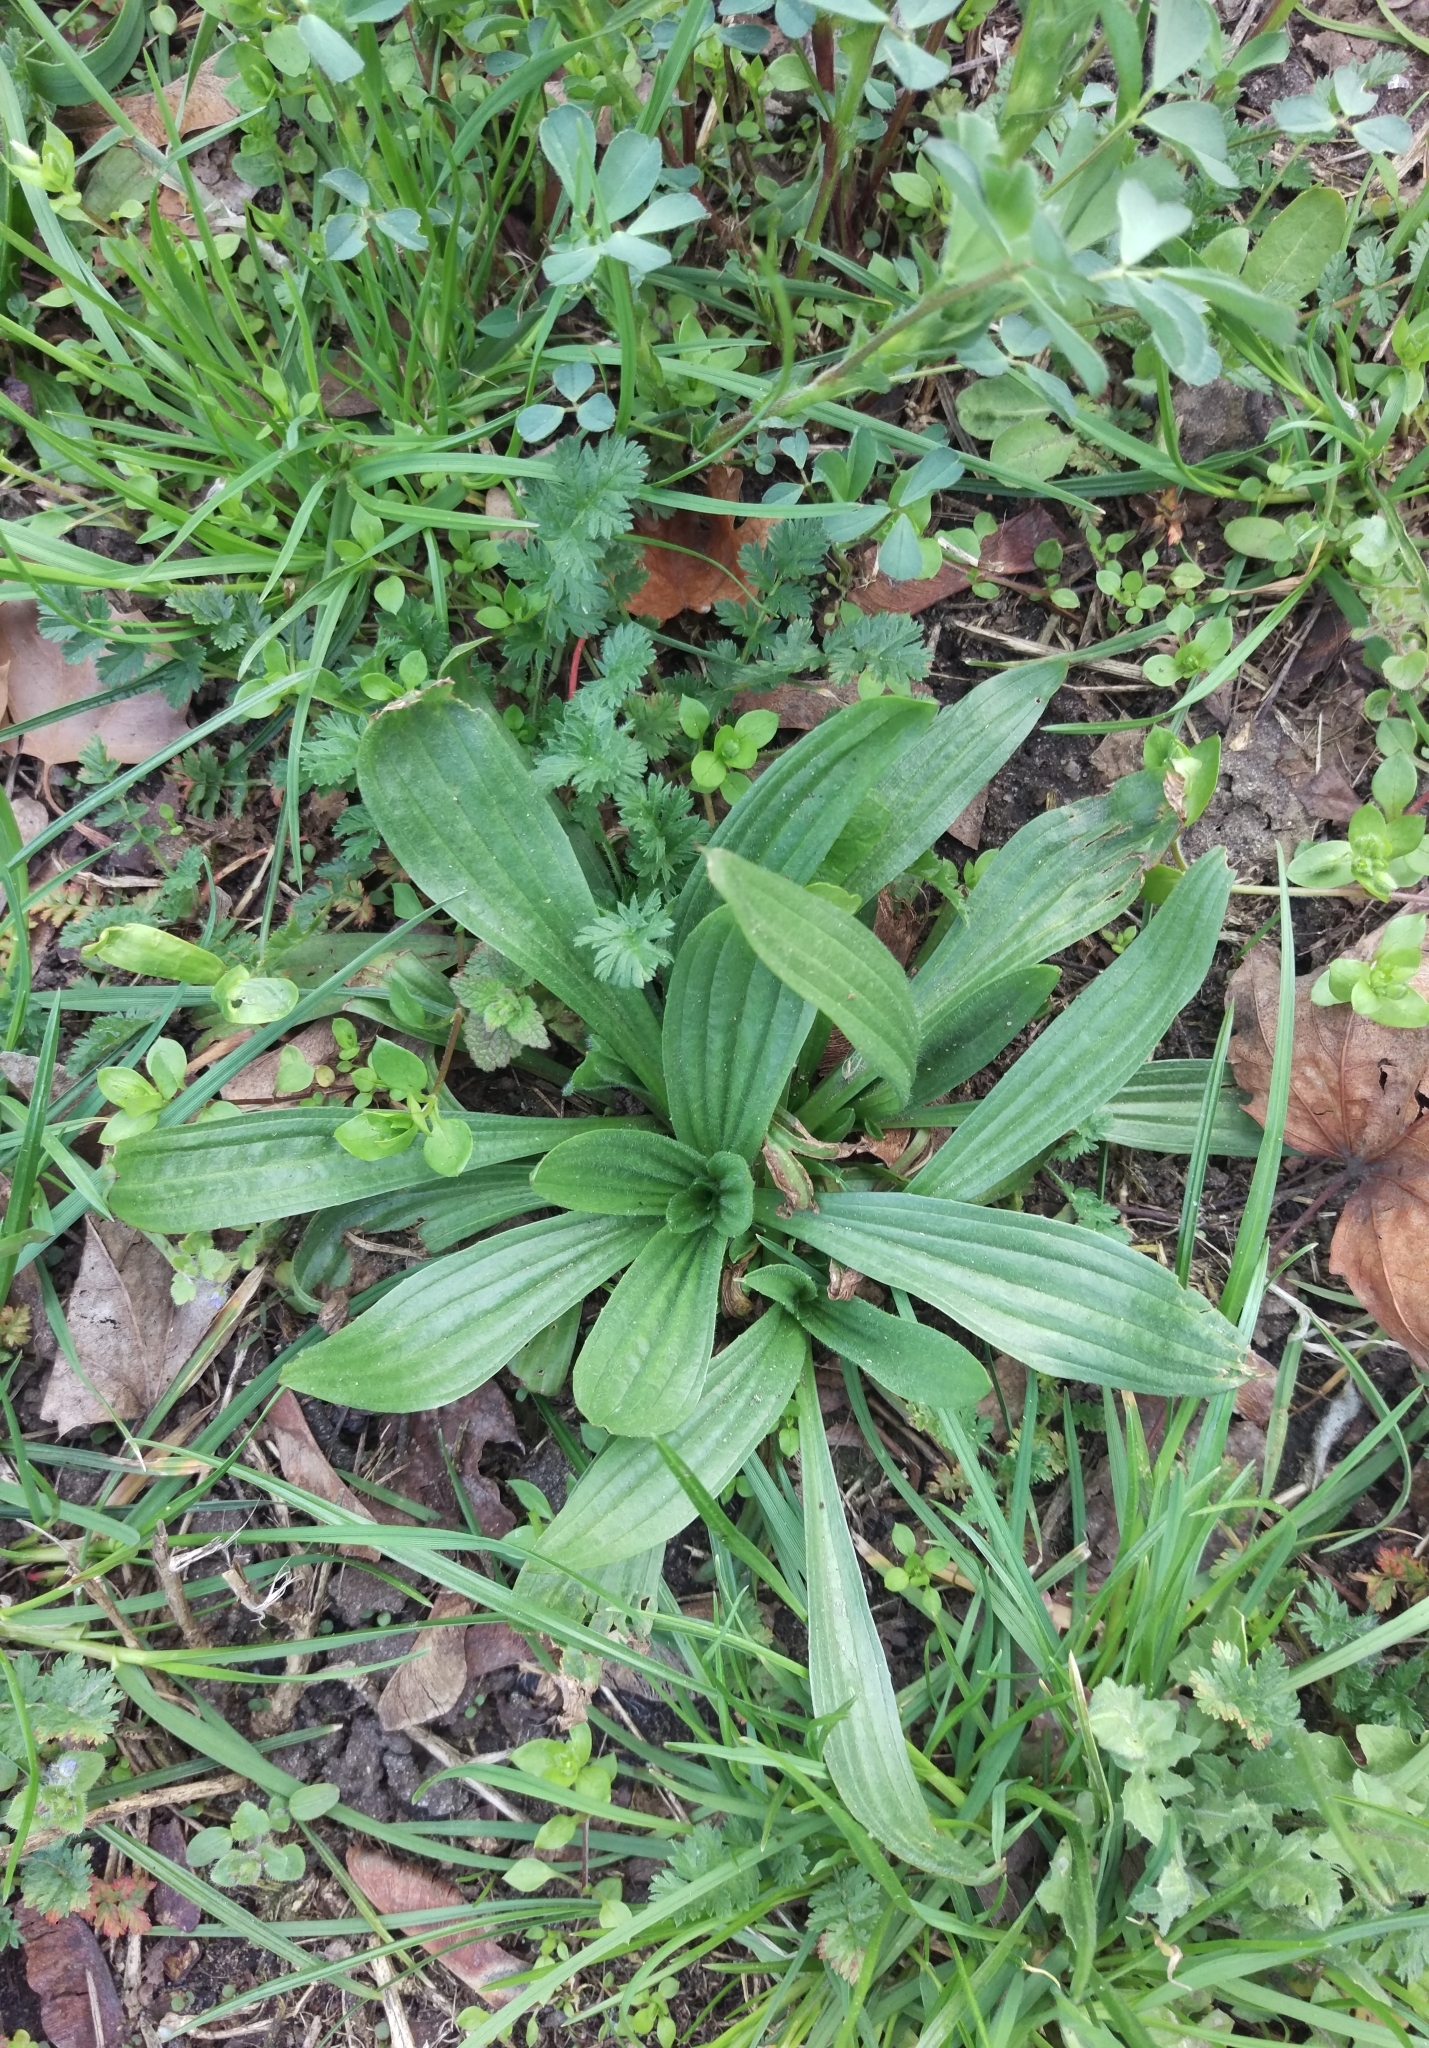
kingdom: Plantae
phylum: Tracheophyta
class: Magnoliopsida
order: Lamiales
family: Plantaginaceae
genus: Plantago
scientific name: Plantago lanceolata
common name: Ribwort plantain
